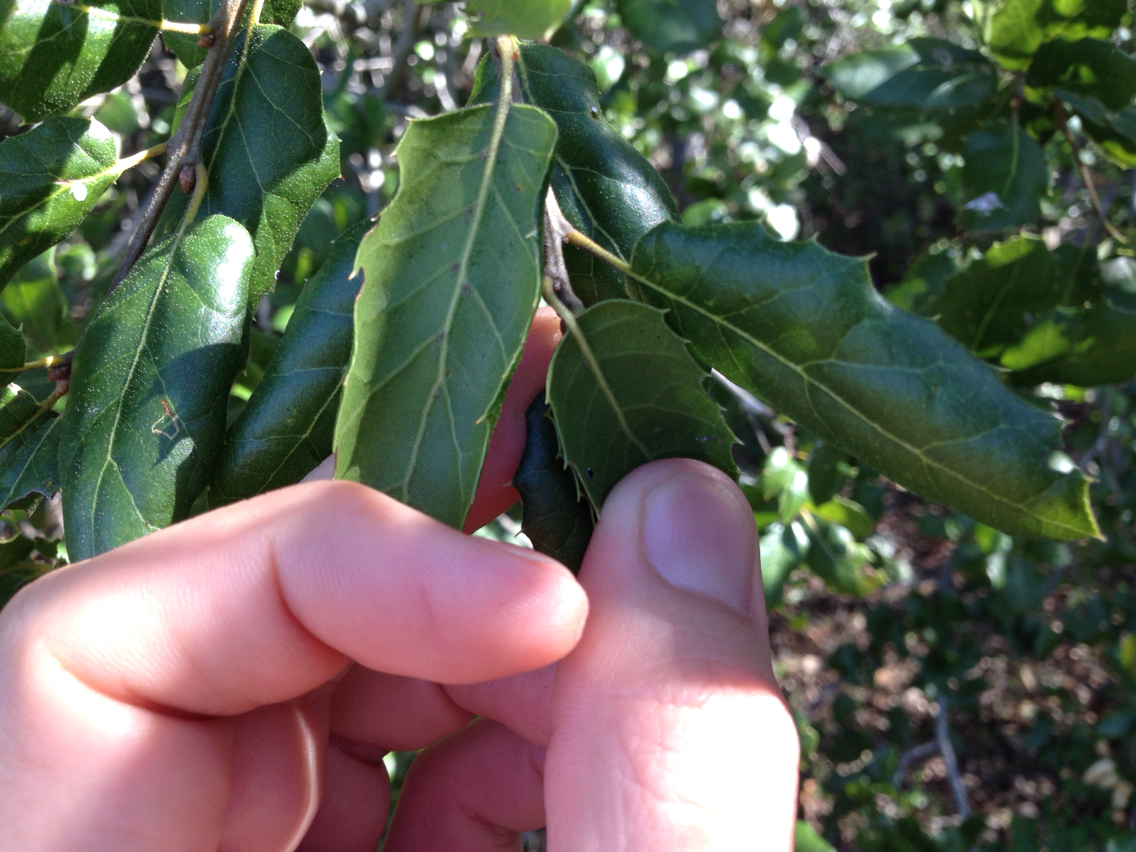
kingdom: Plantae
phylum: Tracheophyta
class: Magnoliopsida
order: Fagales
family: Fagaceae
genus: Quercus
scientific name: Quercus agrifolia
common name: California live oak
